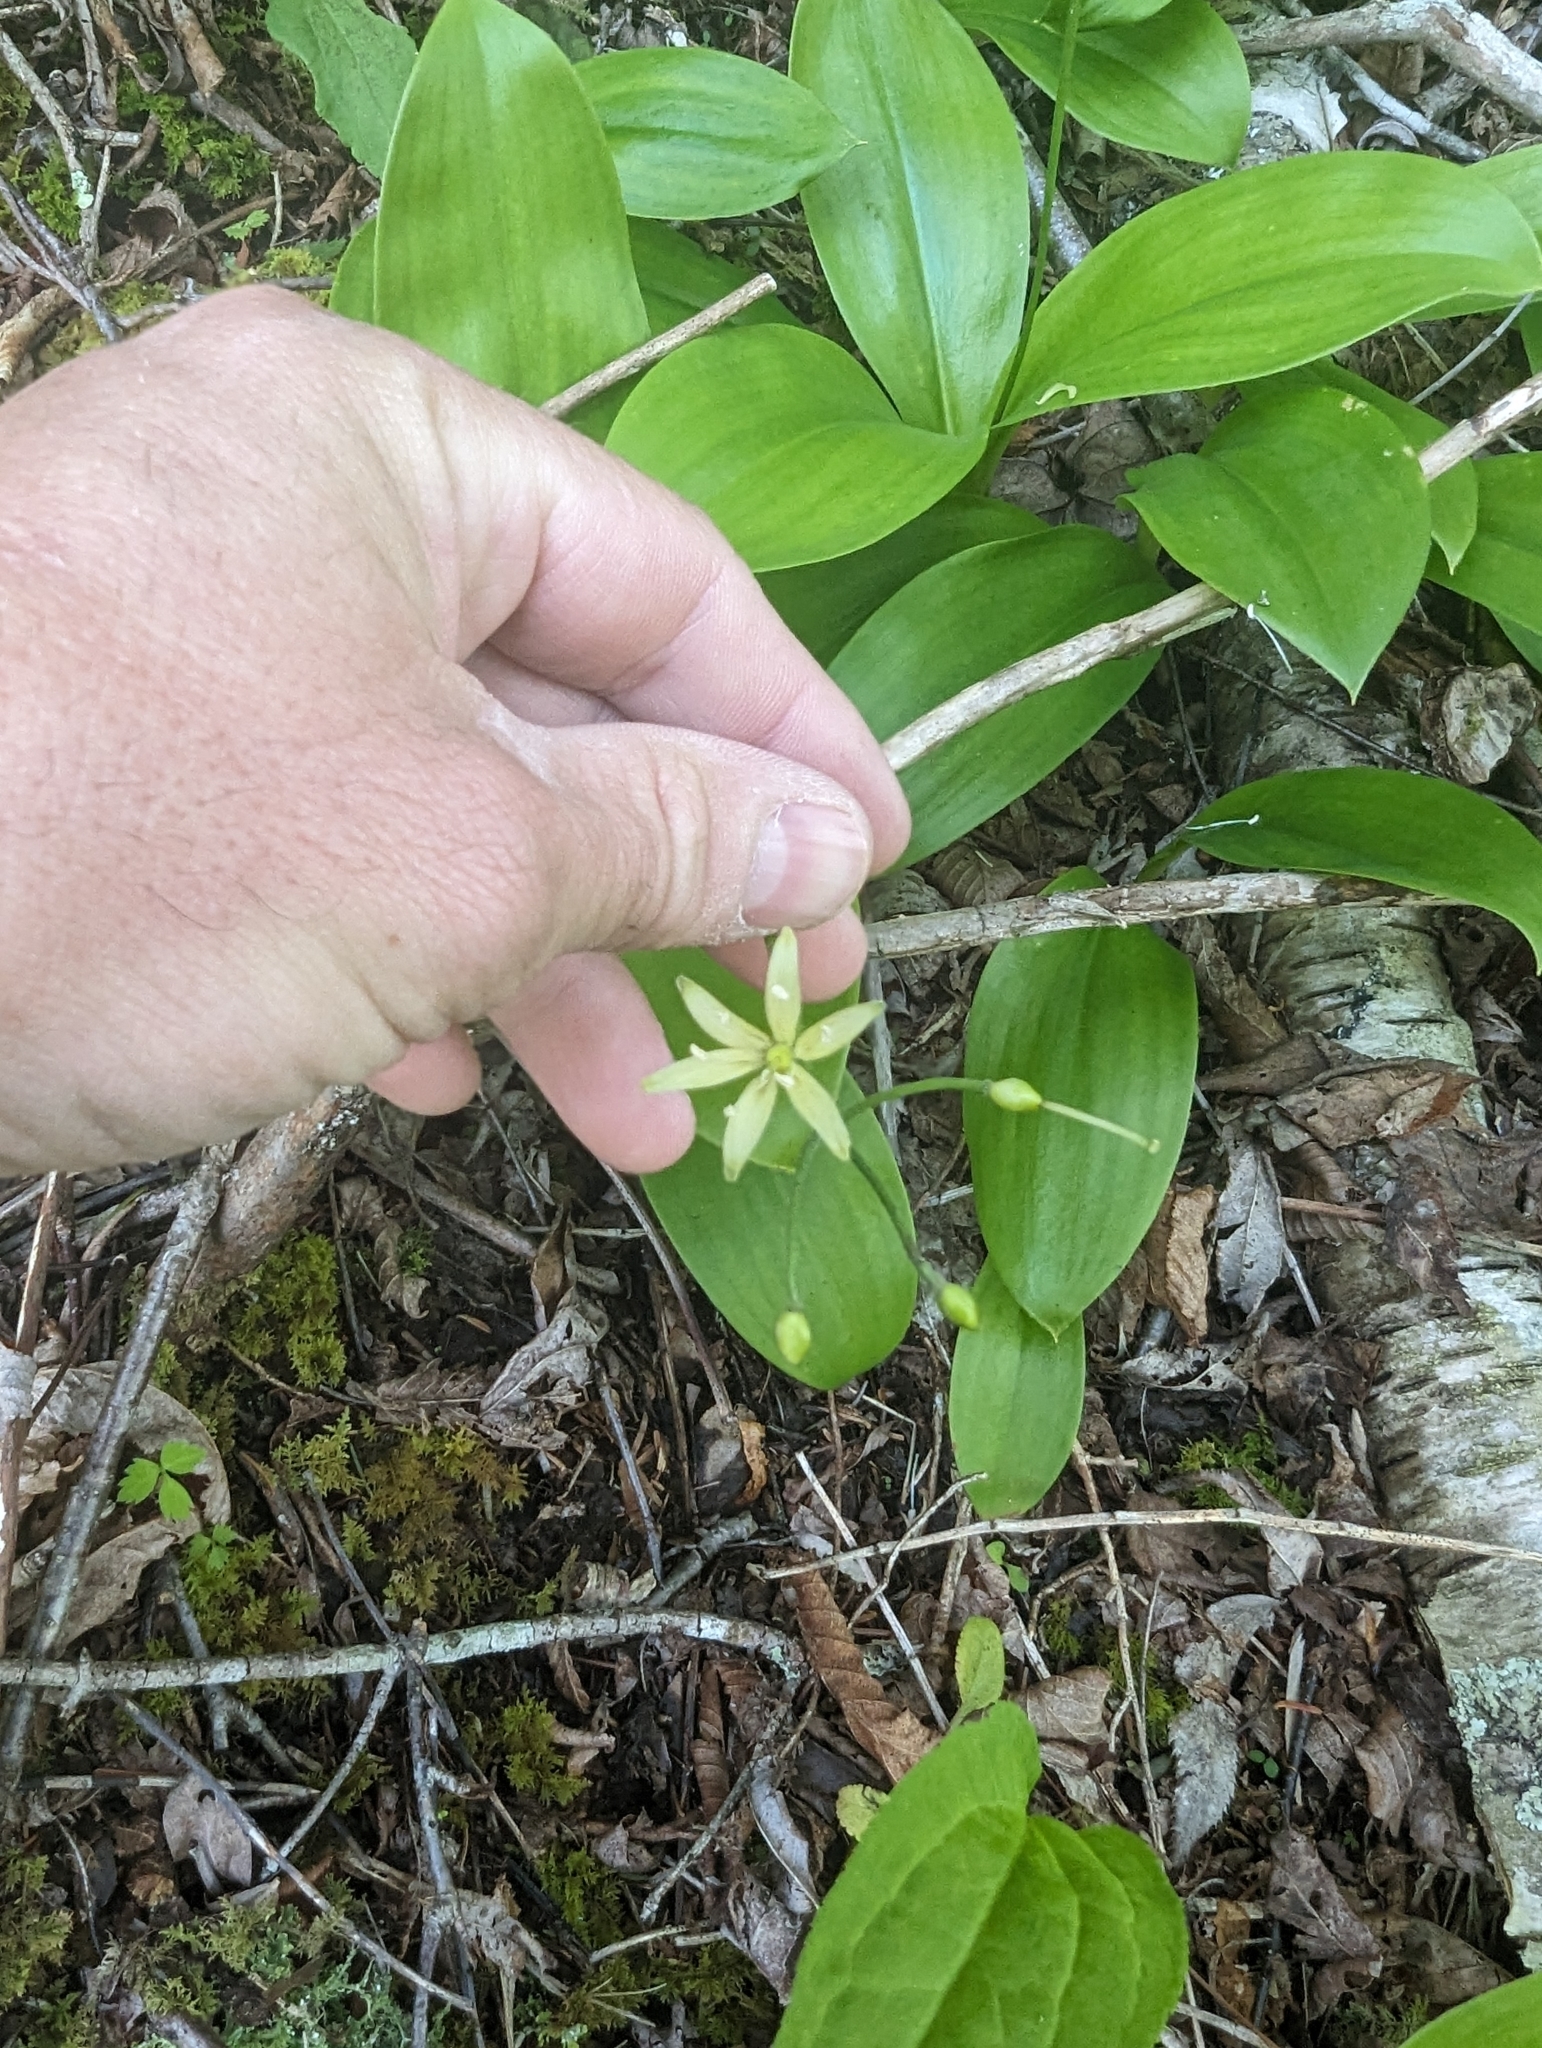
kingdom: Plantae
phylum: Tracheophyta
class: Liliopsida
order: Liliales
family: Liliaceae
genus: Clintonia
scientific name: Clintonia borealis
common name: Yellow clintonia
